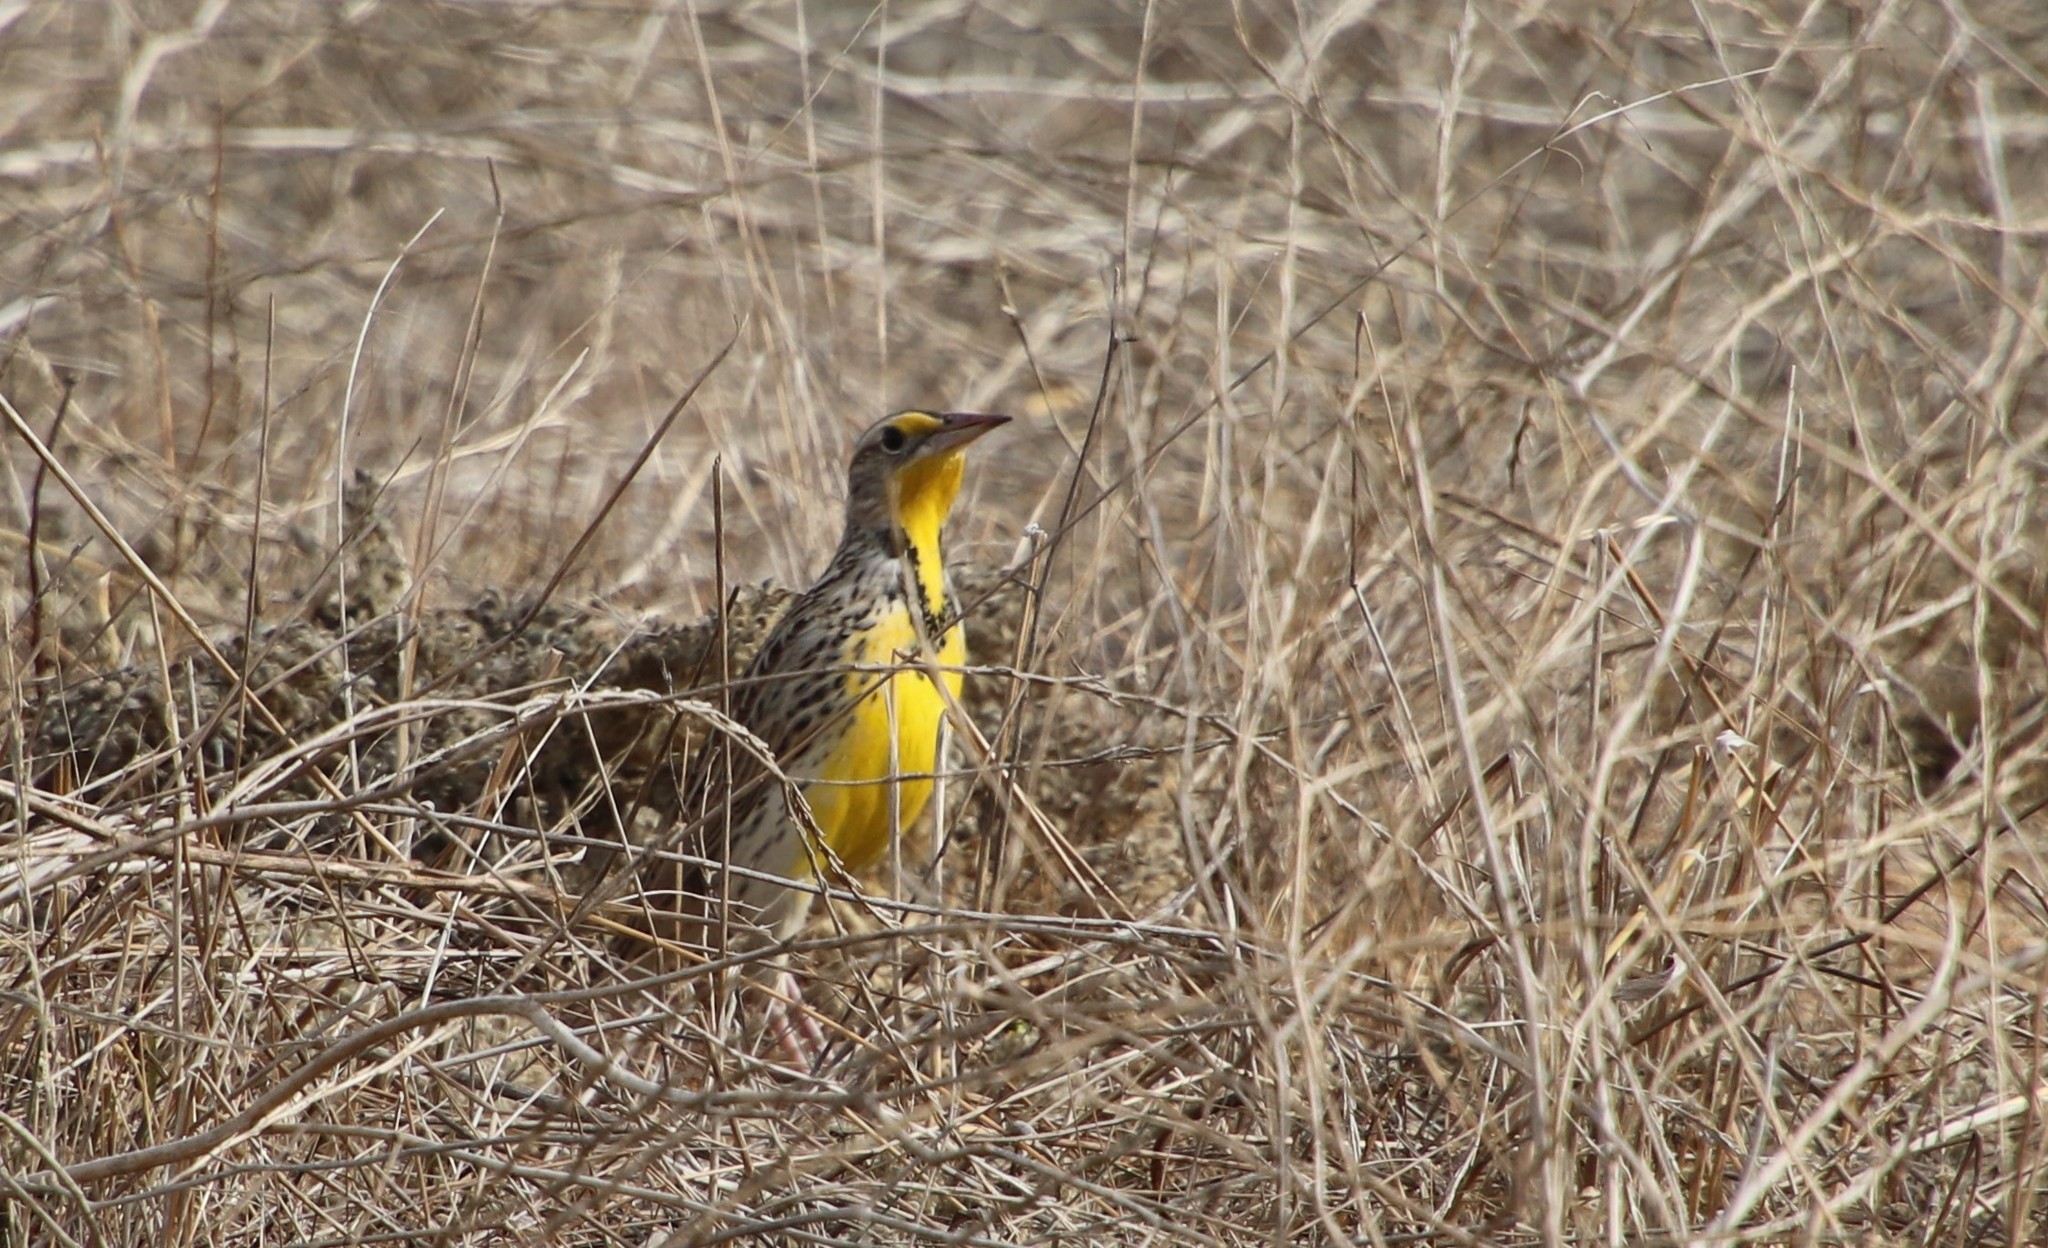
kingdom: Animalia
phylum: Chordata
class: Aves
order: Passeriformes
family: Icteridae
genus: Sturnella
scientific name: Sturnella neglecta
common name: Western meadowlark
